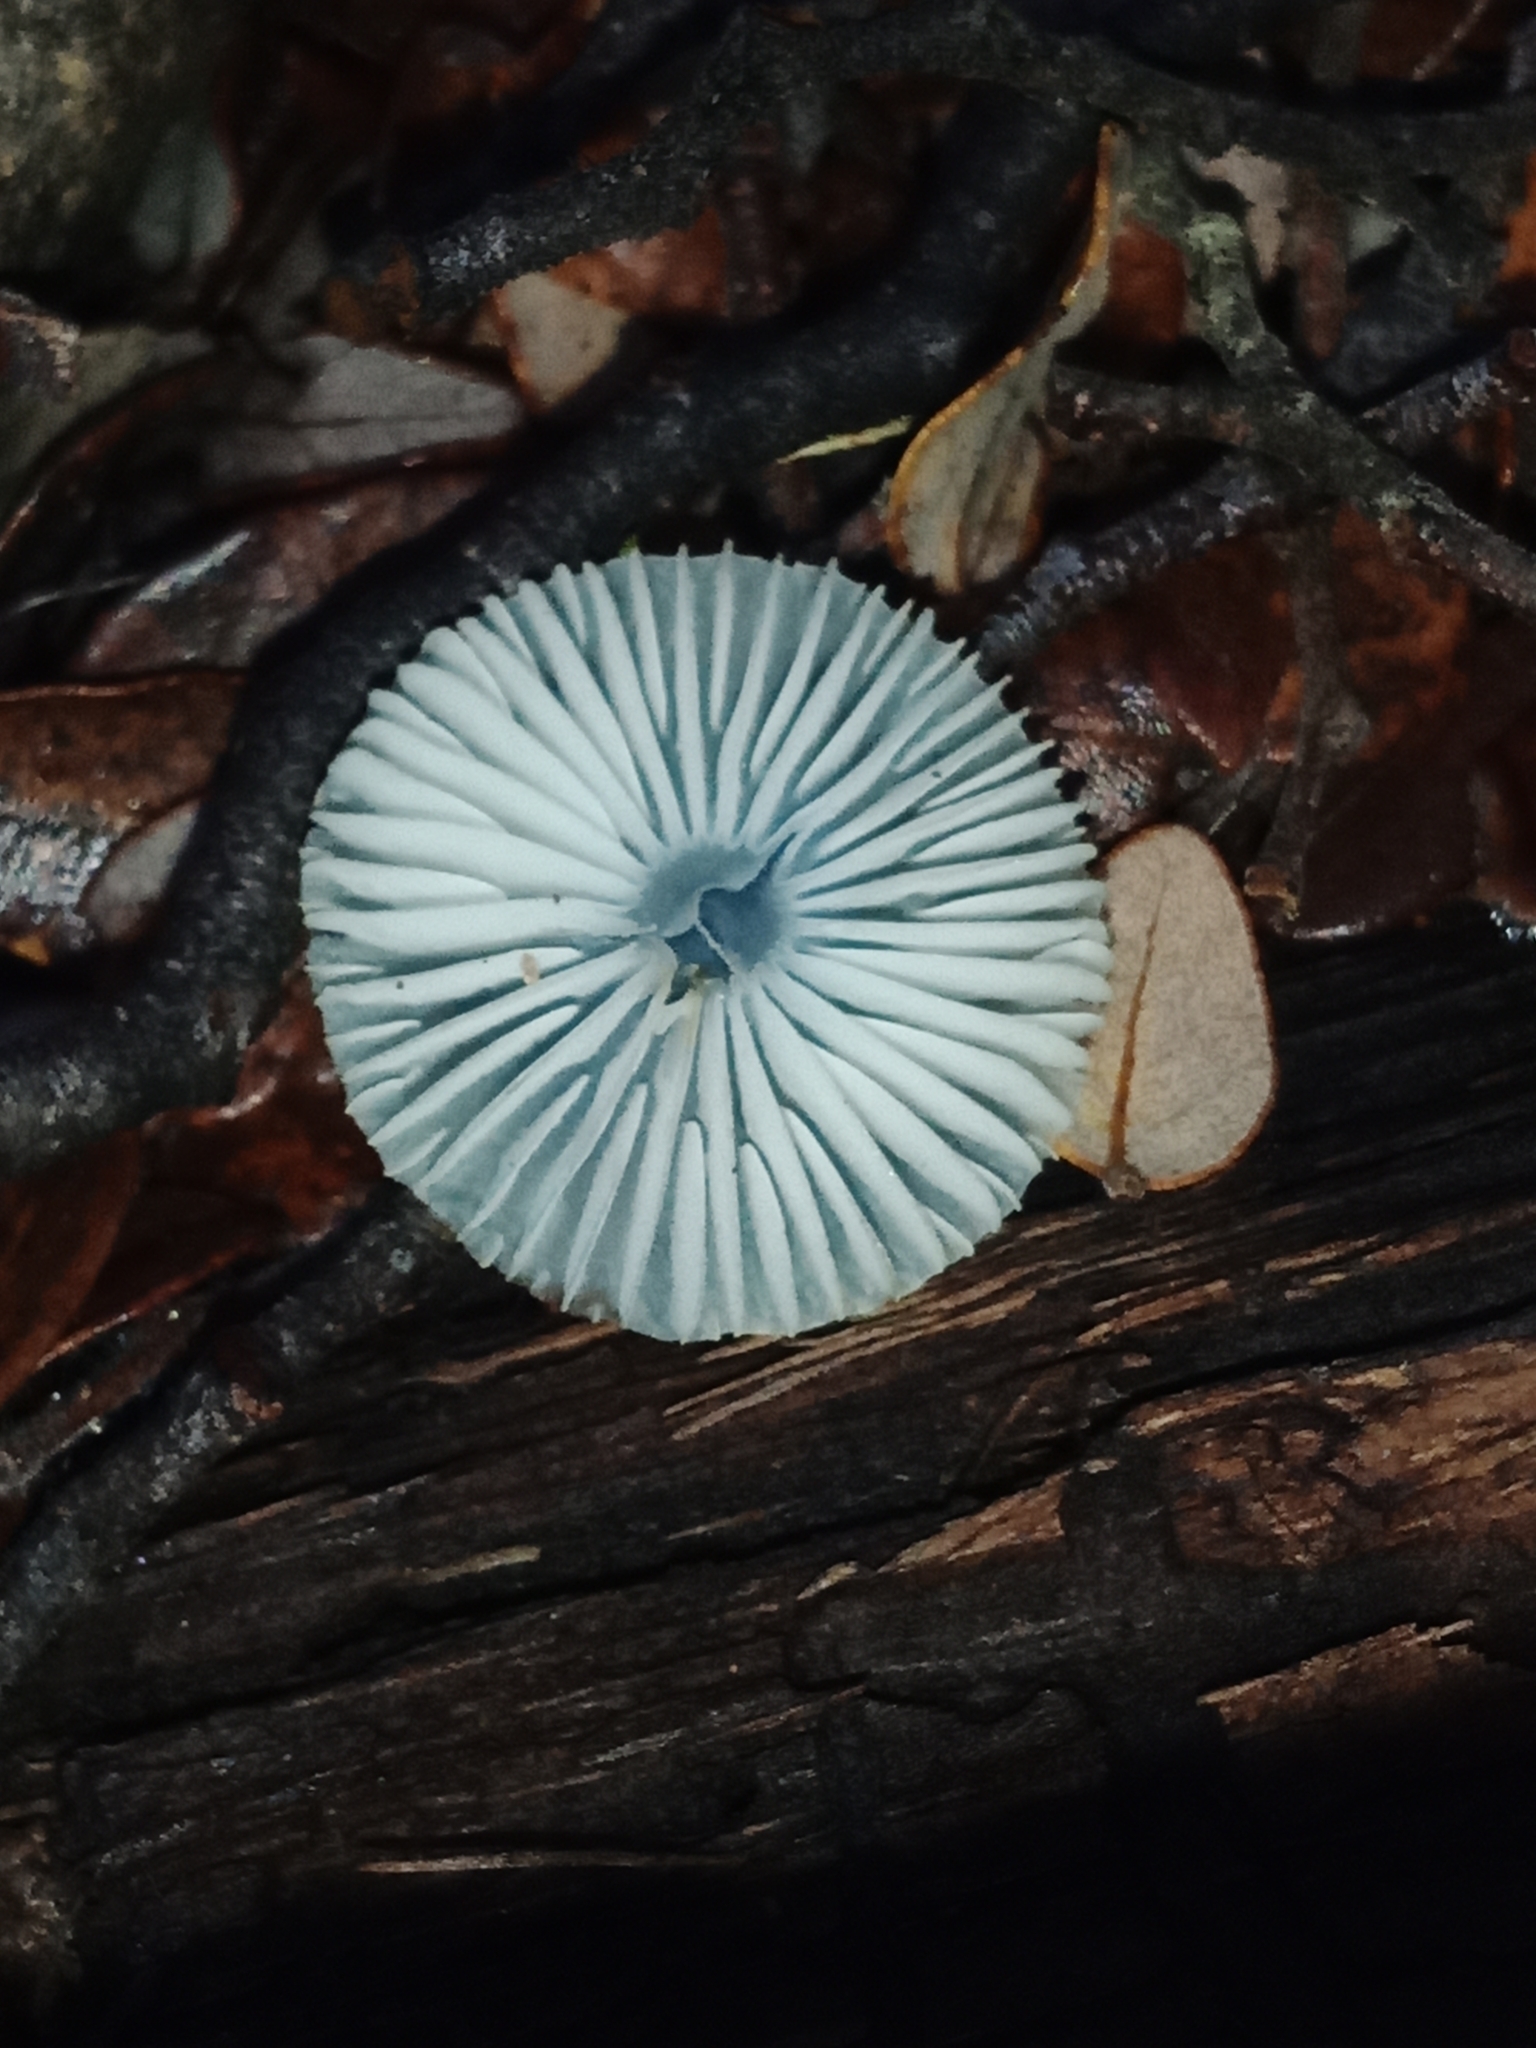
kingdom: Fungi
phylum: Basidiomycota
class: Agaricomycetes
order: Agaricales
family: Mycenaceae
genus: Mycena
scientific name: Mycena interrupta
